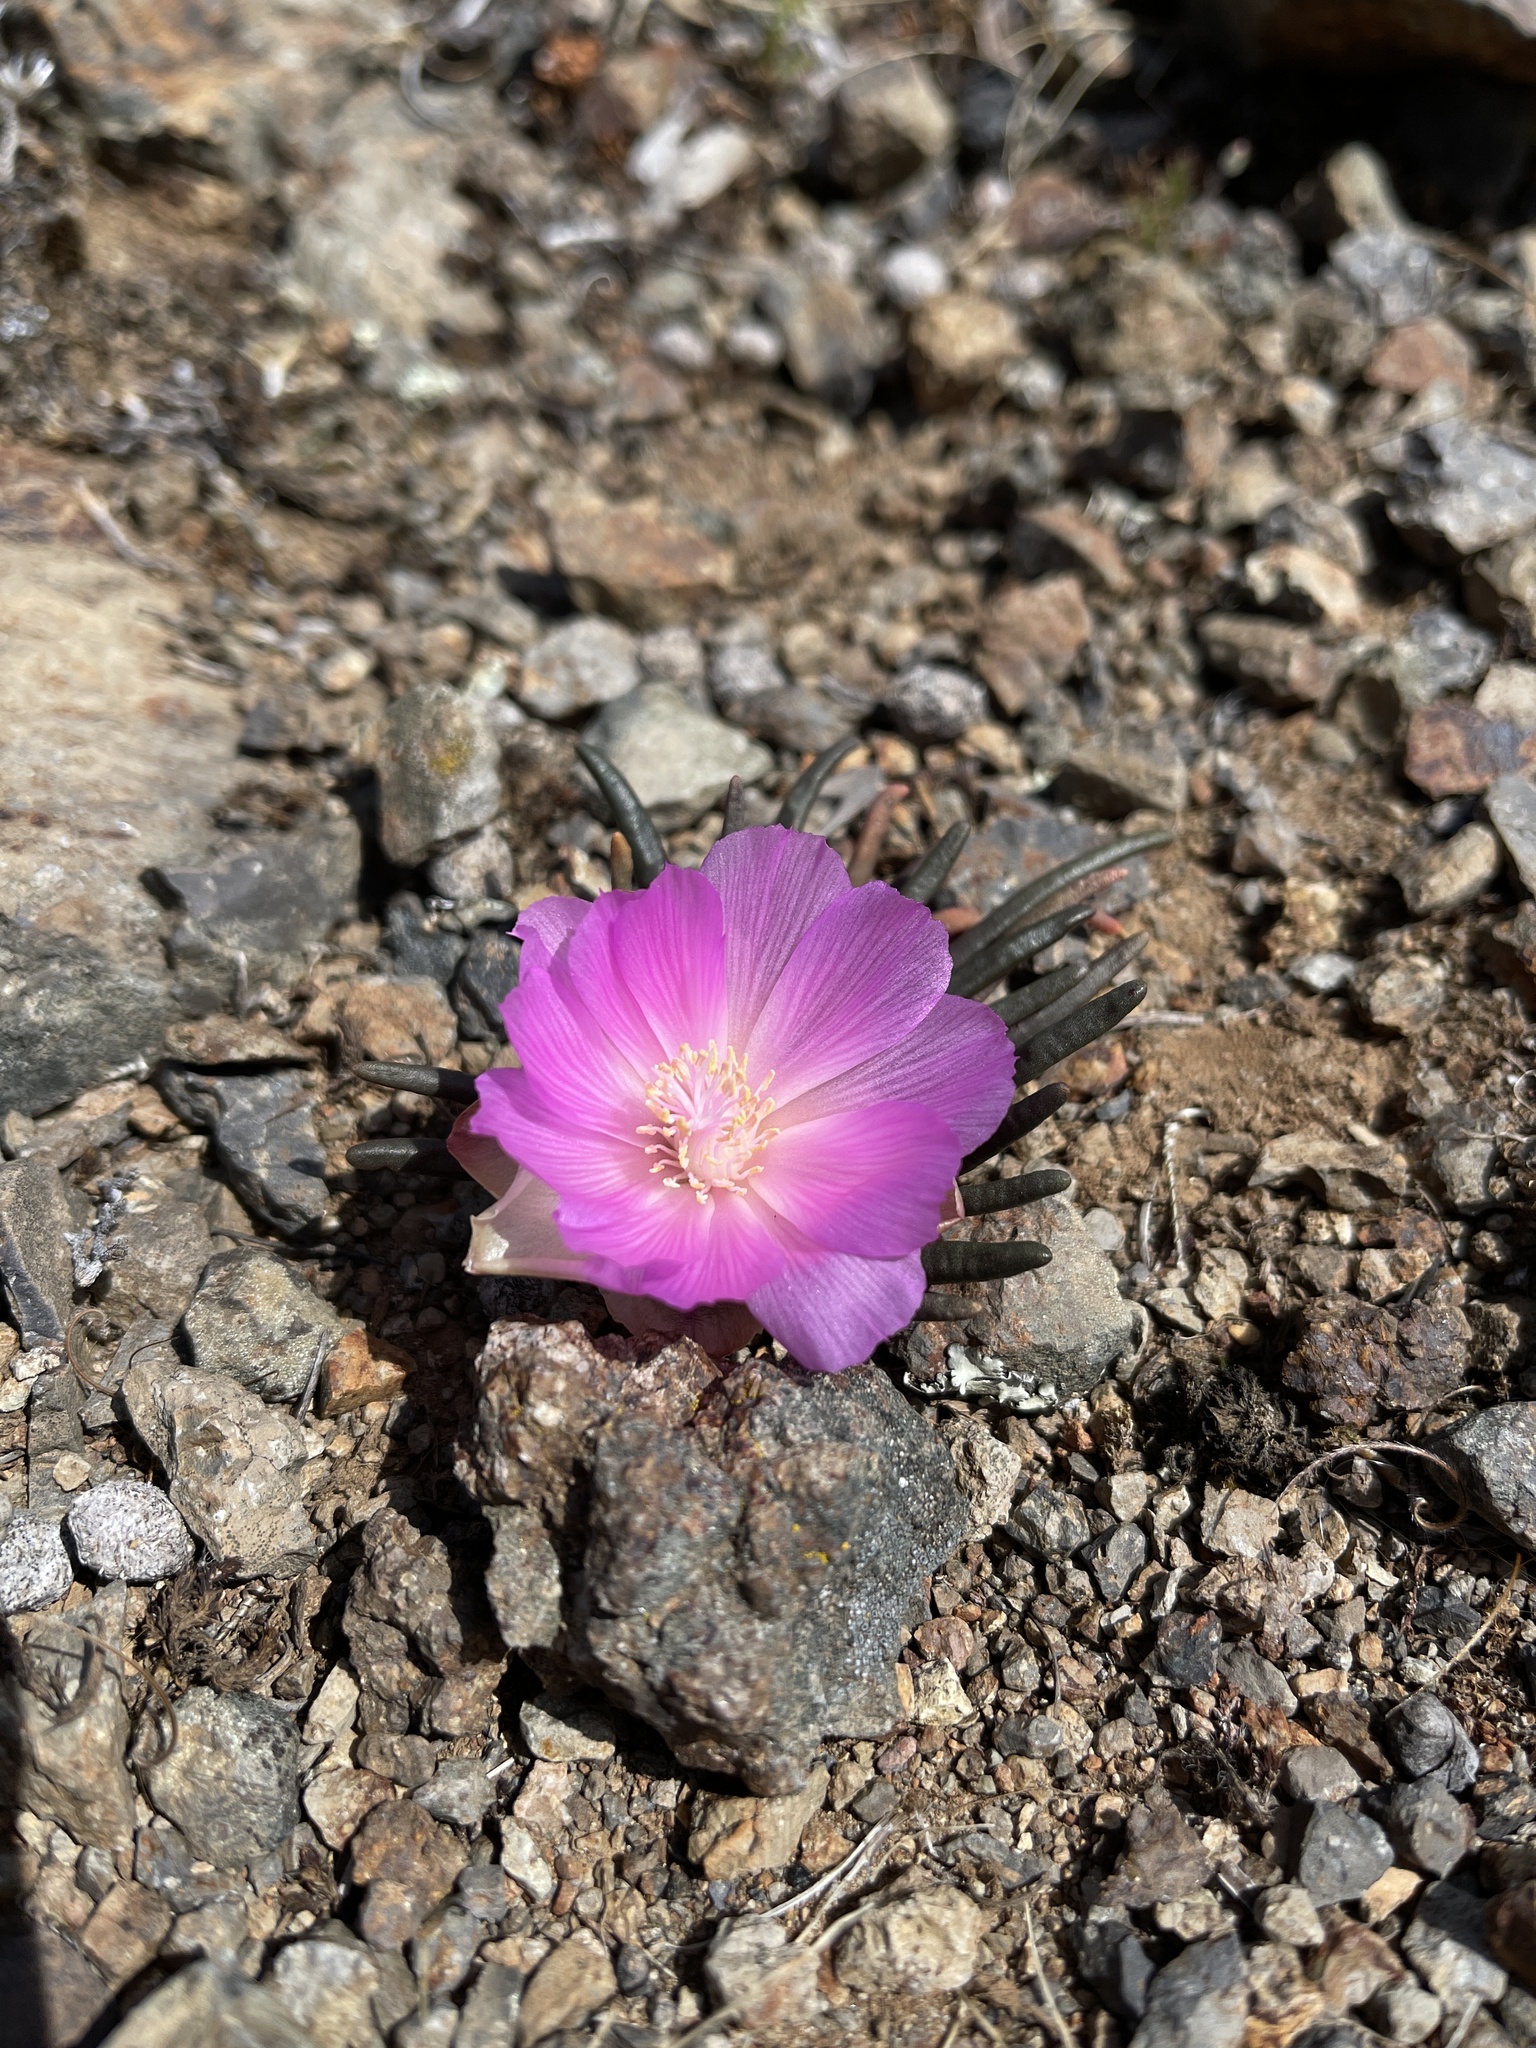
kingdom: Plantae
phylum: Tracheophyta
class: Magnoliopsida
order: Caryophyllales
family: Montiaceae
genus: Lewisia
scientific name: Lewisia rediviva
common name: Bitter-root
